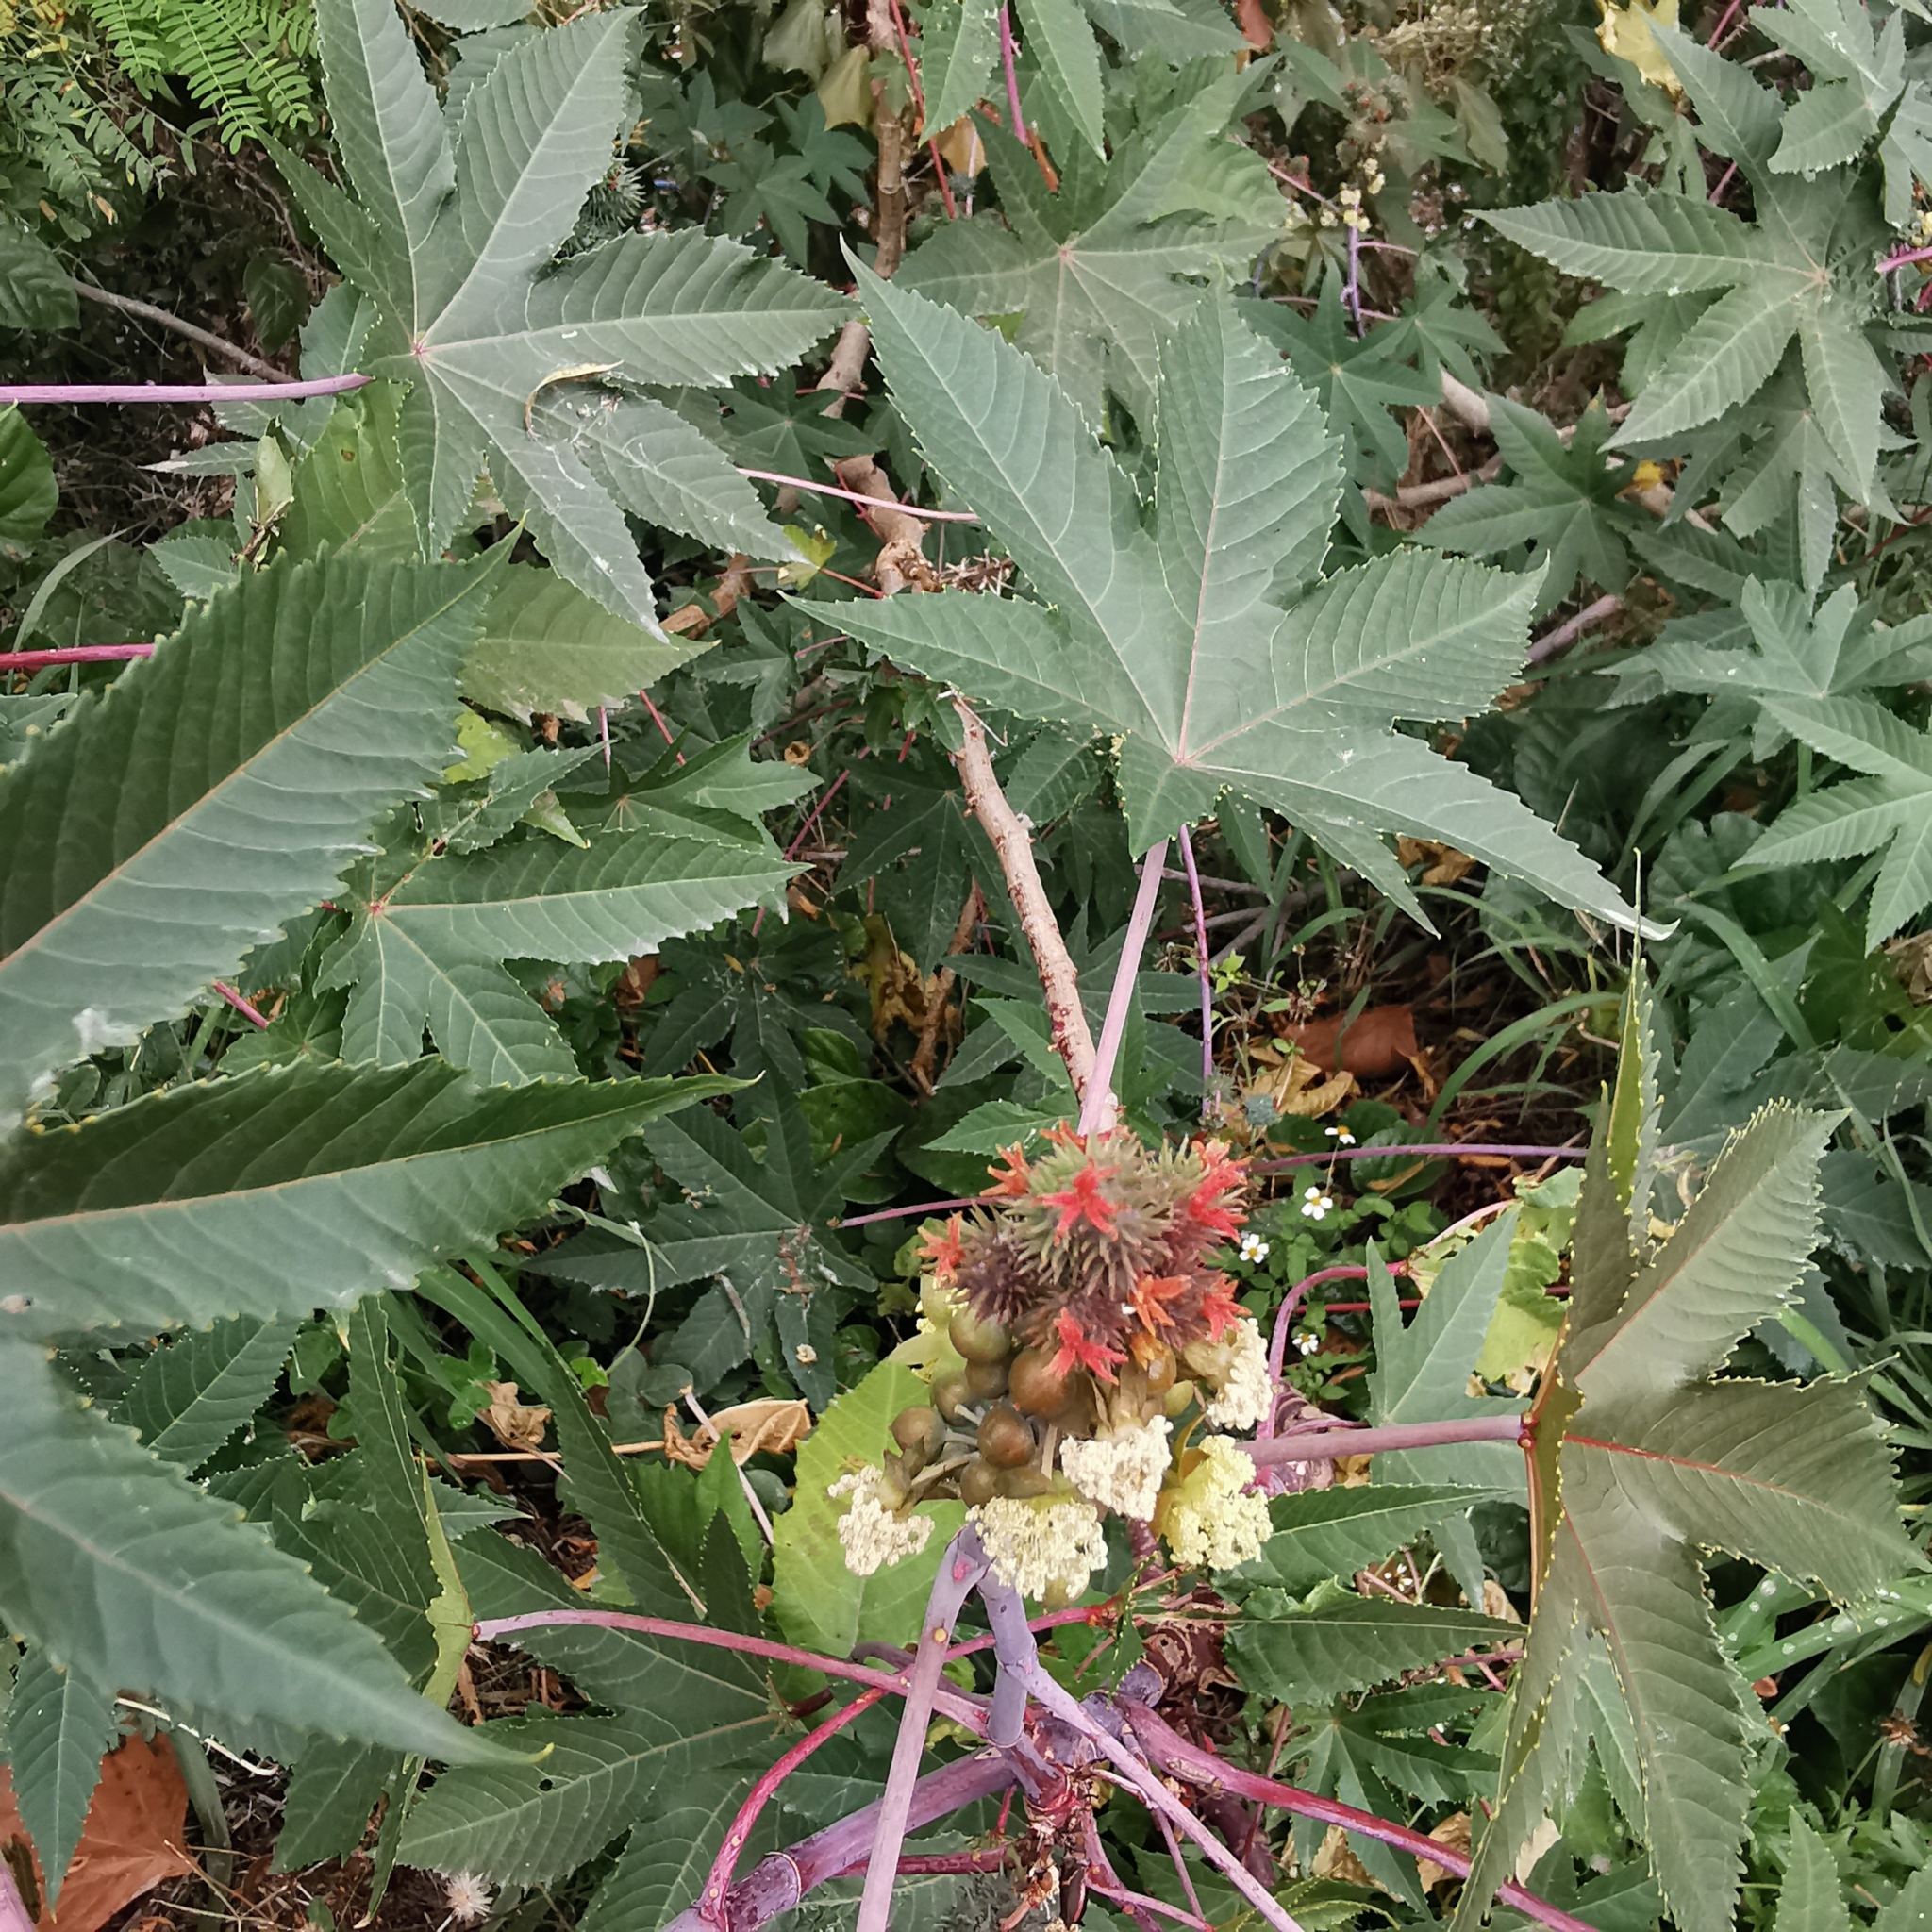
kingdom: Plantae
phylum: Tracheophyta
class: Magnoliopsida
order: Malpighiales
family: Euphorbiaceae
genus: Ricinus
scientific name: Ricinus communis
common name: Castor-oil-plant
